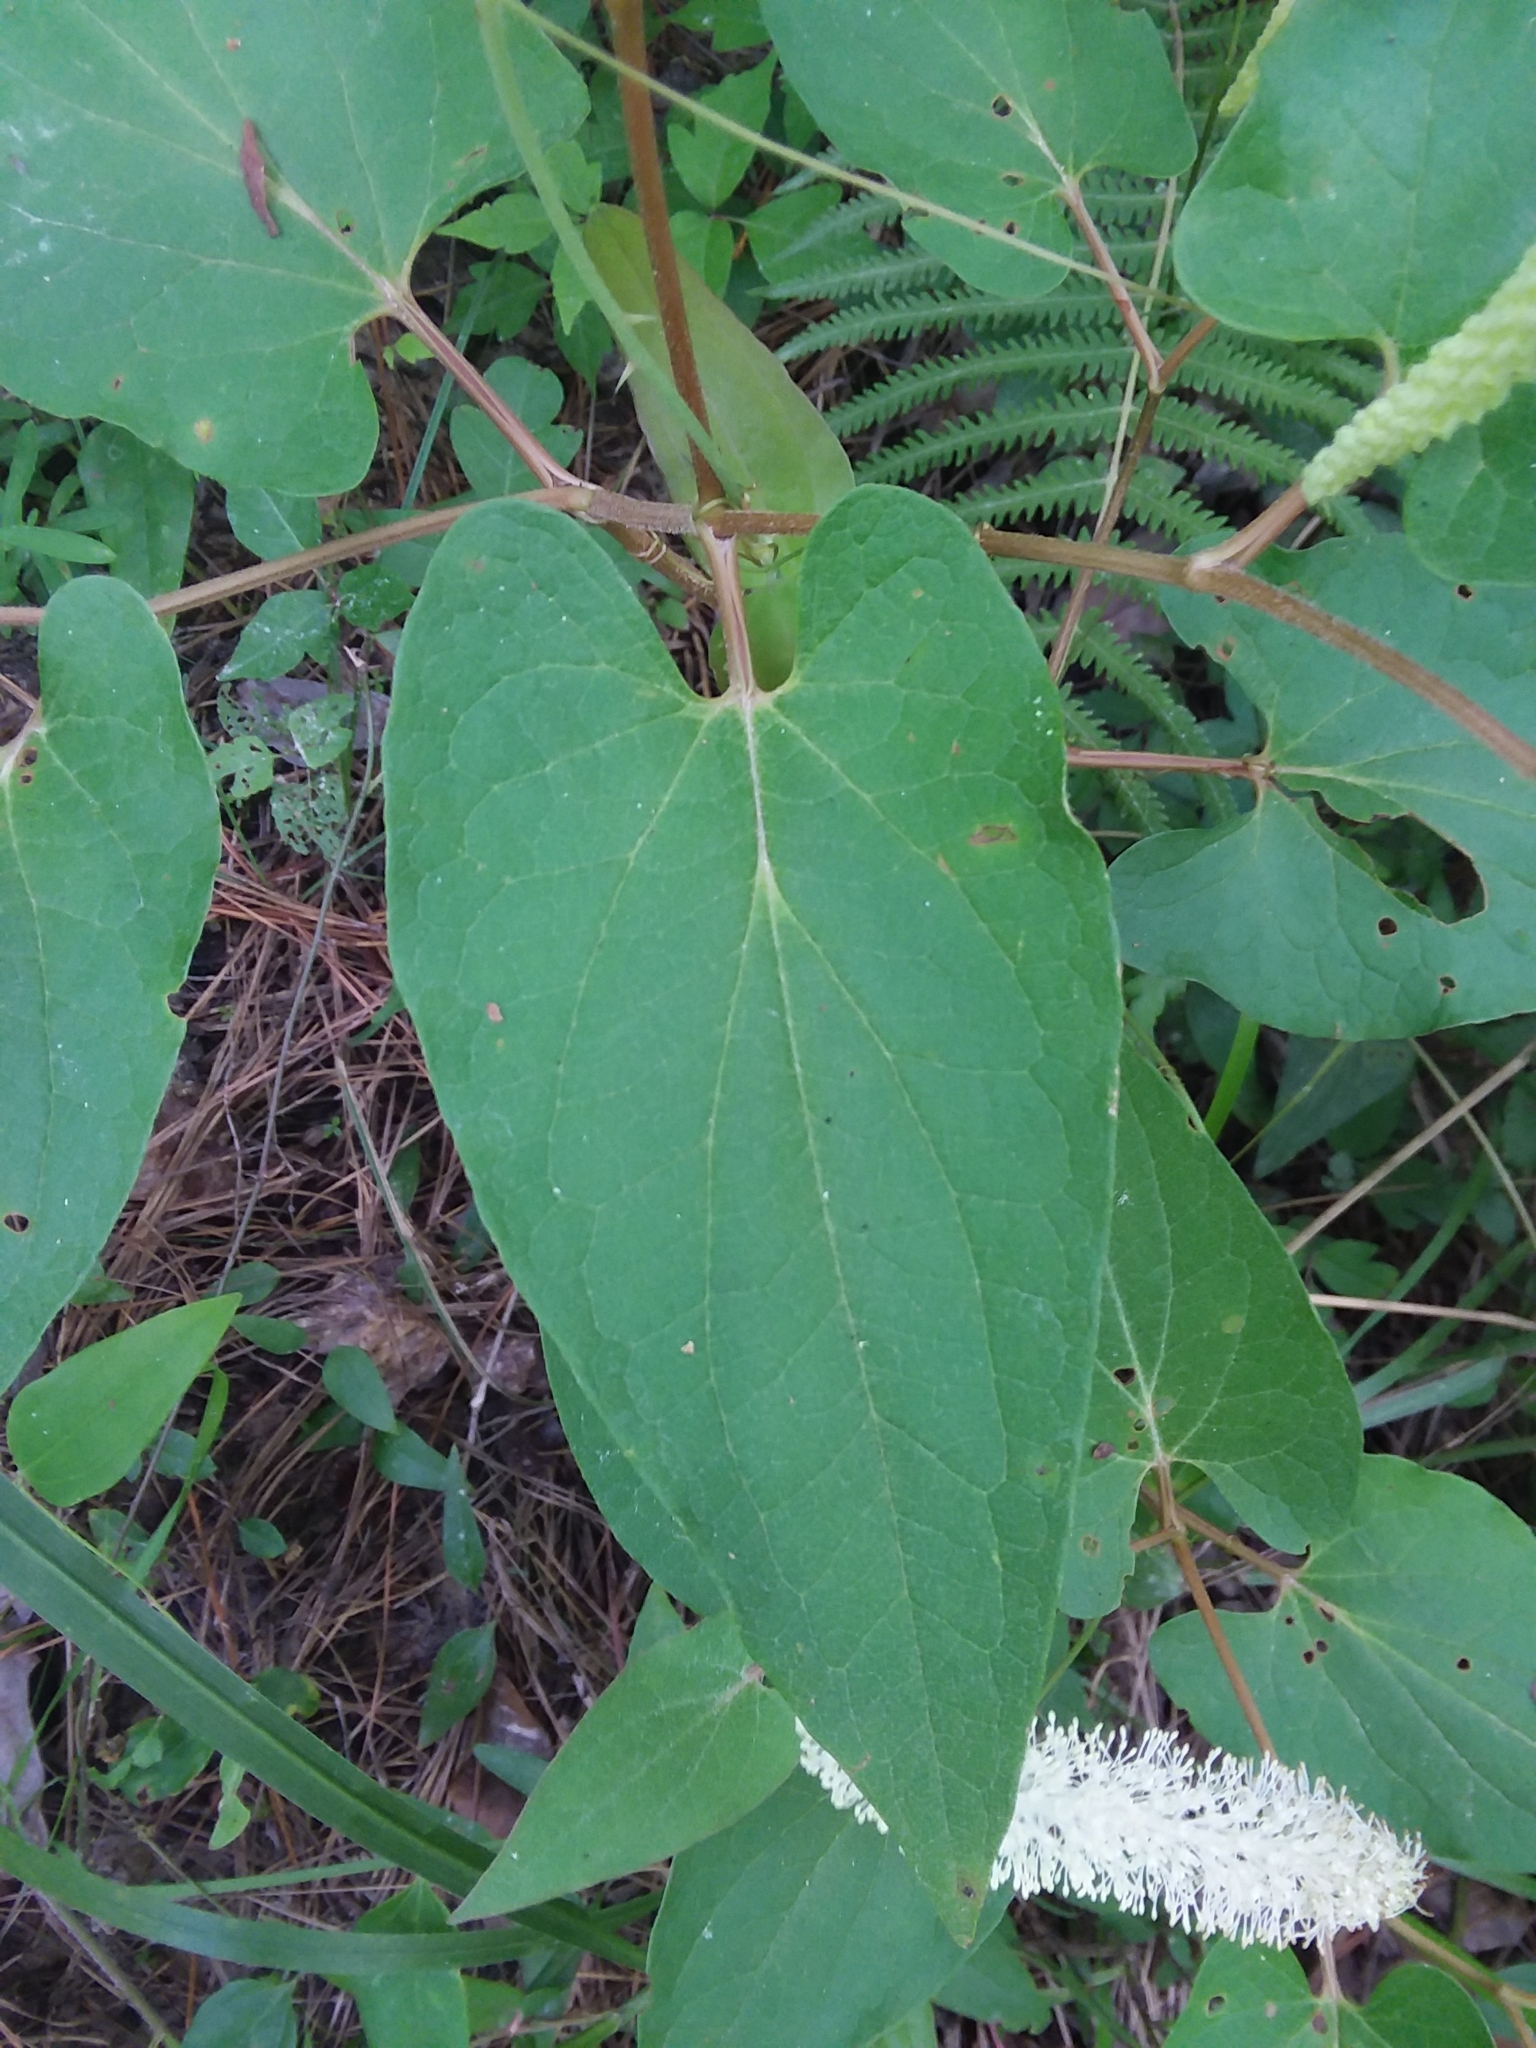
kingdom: Plantae
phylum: Tracheophyta
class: Magnoliopsida
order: Piperales
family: Saururaceae
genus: Saururus
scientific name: Saururus cernuus
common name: Lizard's-tail
